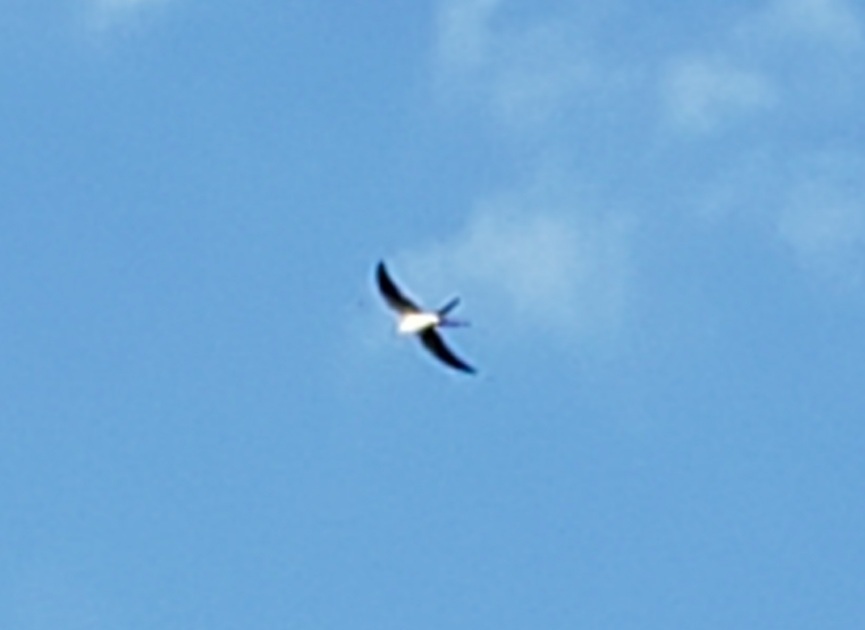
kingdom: Animalia
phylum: Chordata
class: Aves
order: Accipitriformes
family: Accipitridae
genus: Elanoides
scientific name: Elanoides forficatus
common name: Swallow-tailed kite
